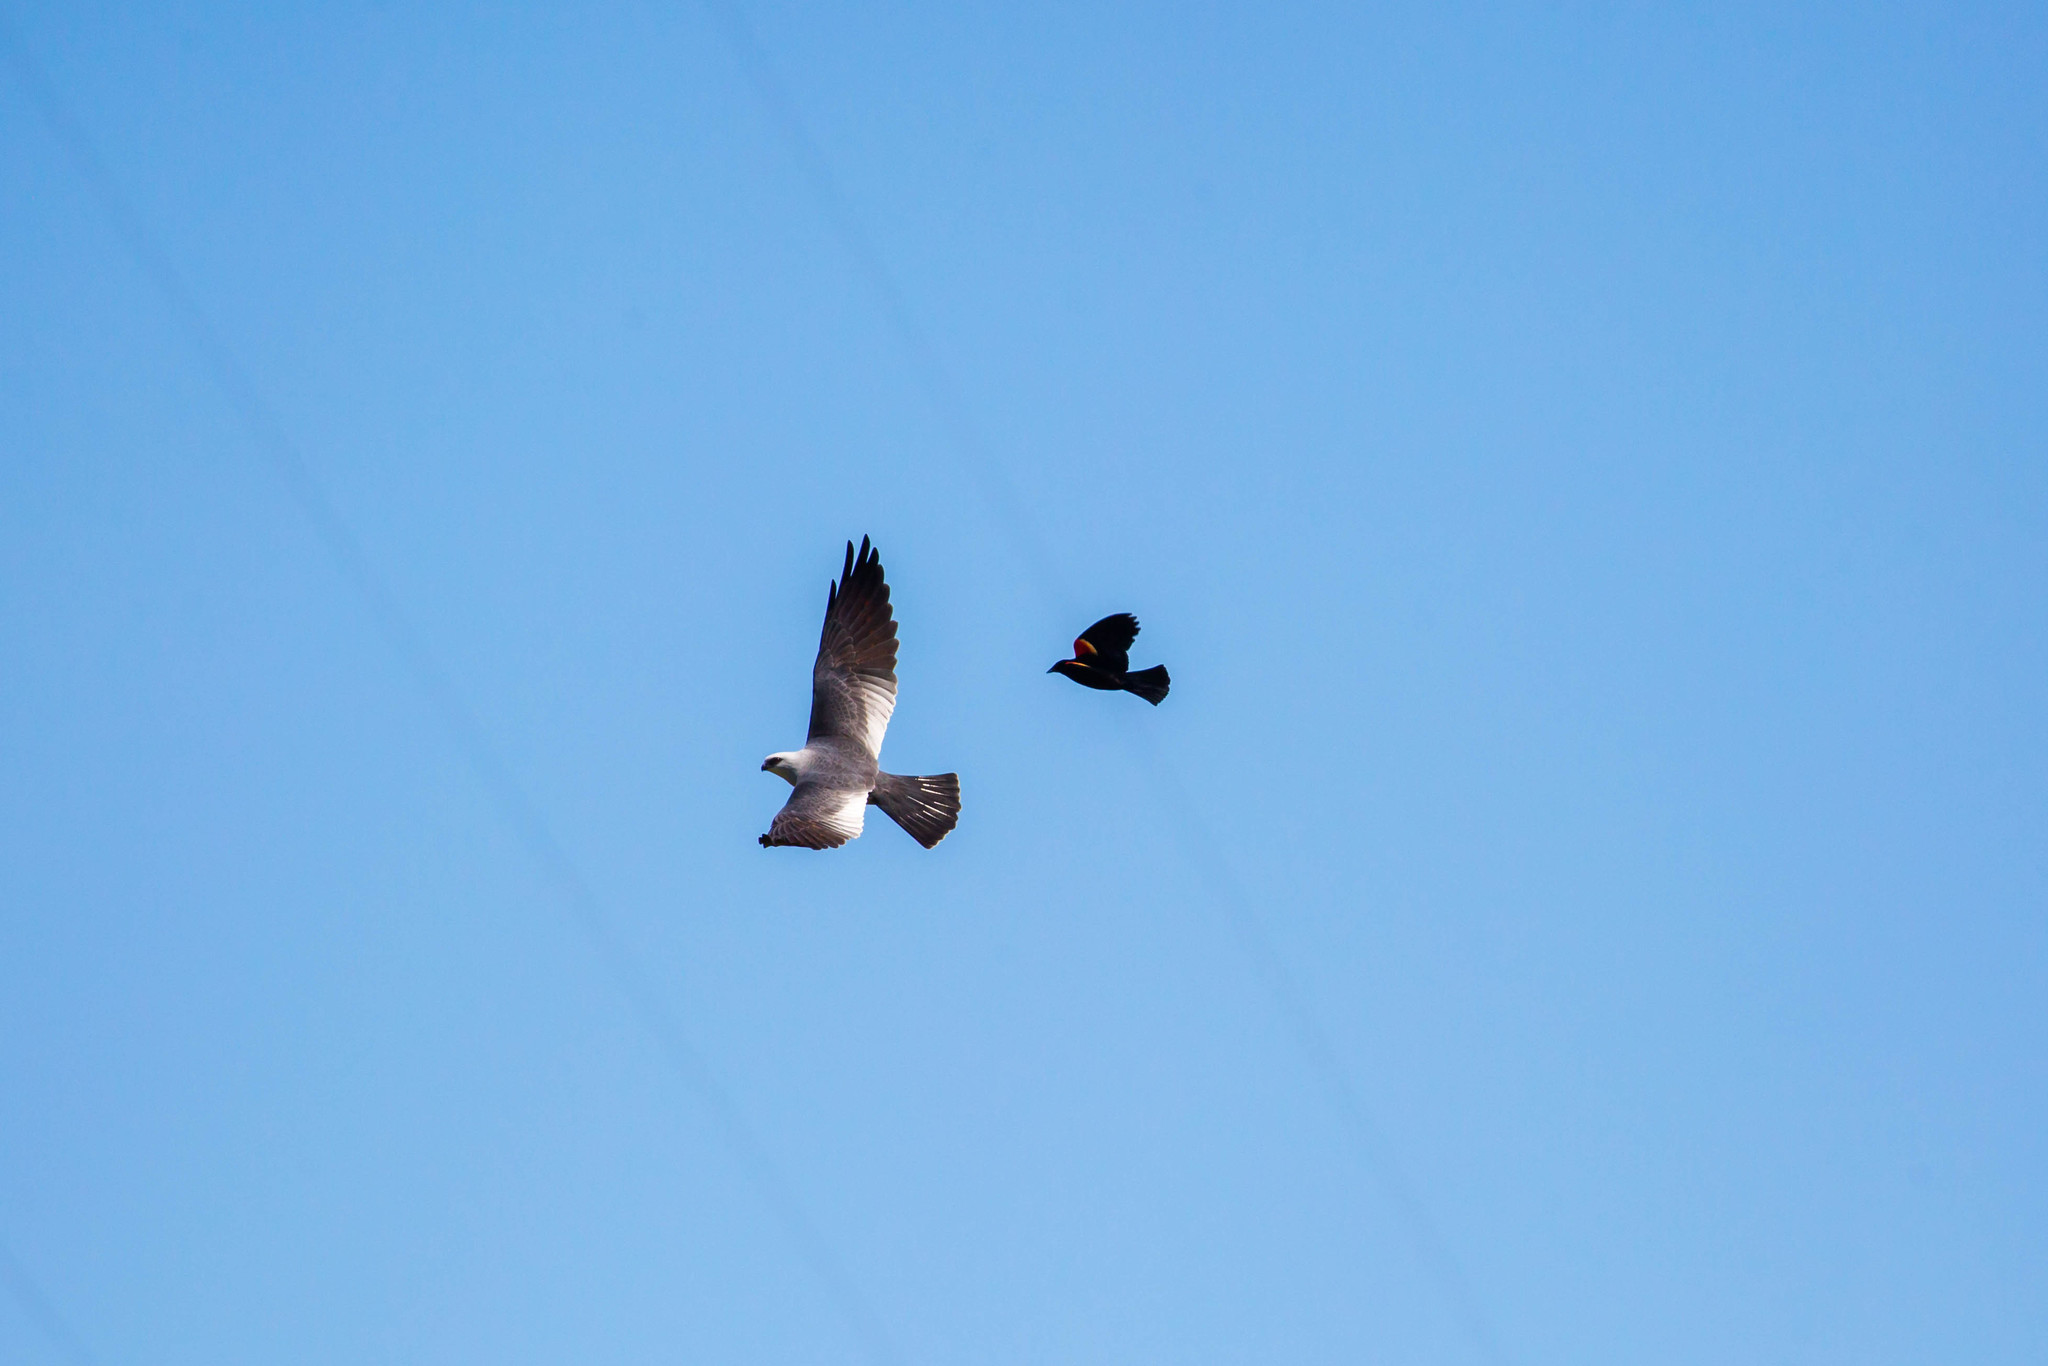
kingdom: Animalia
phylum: Chordata
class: Aves
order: Passeriformes
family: Icteridae
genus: Agelaius
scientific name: Agelaius phoeniceus
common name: Red-winged blackbird
